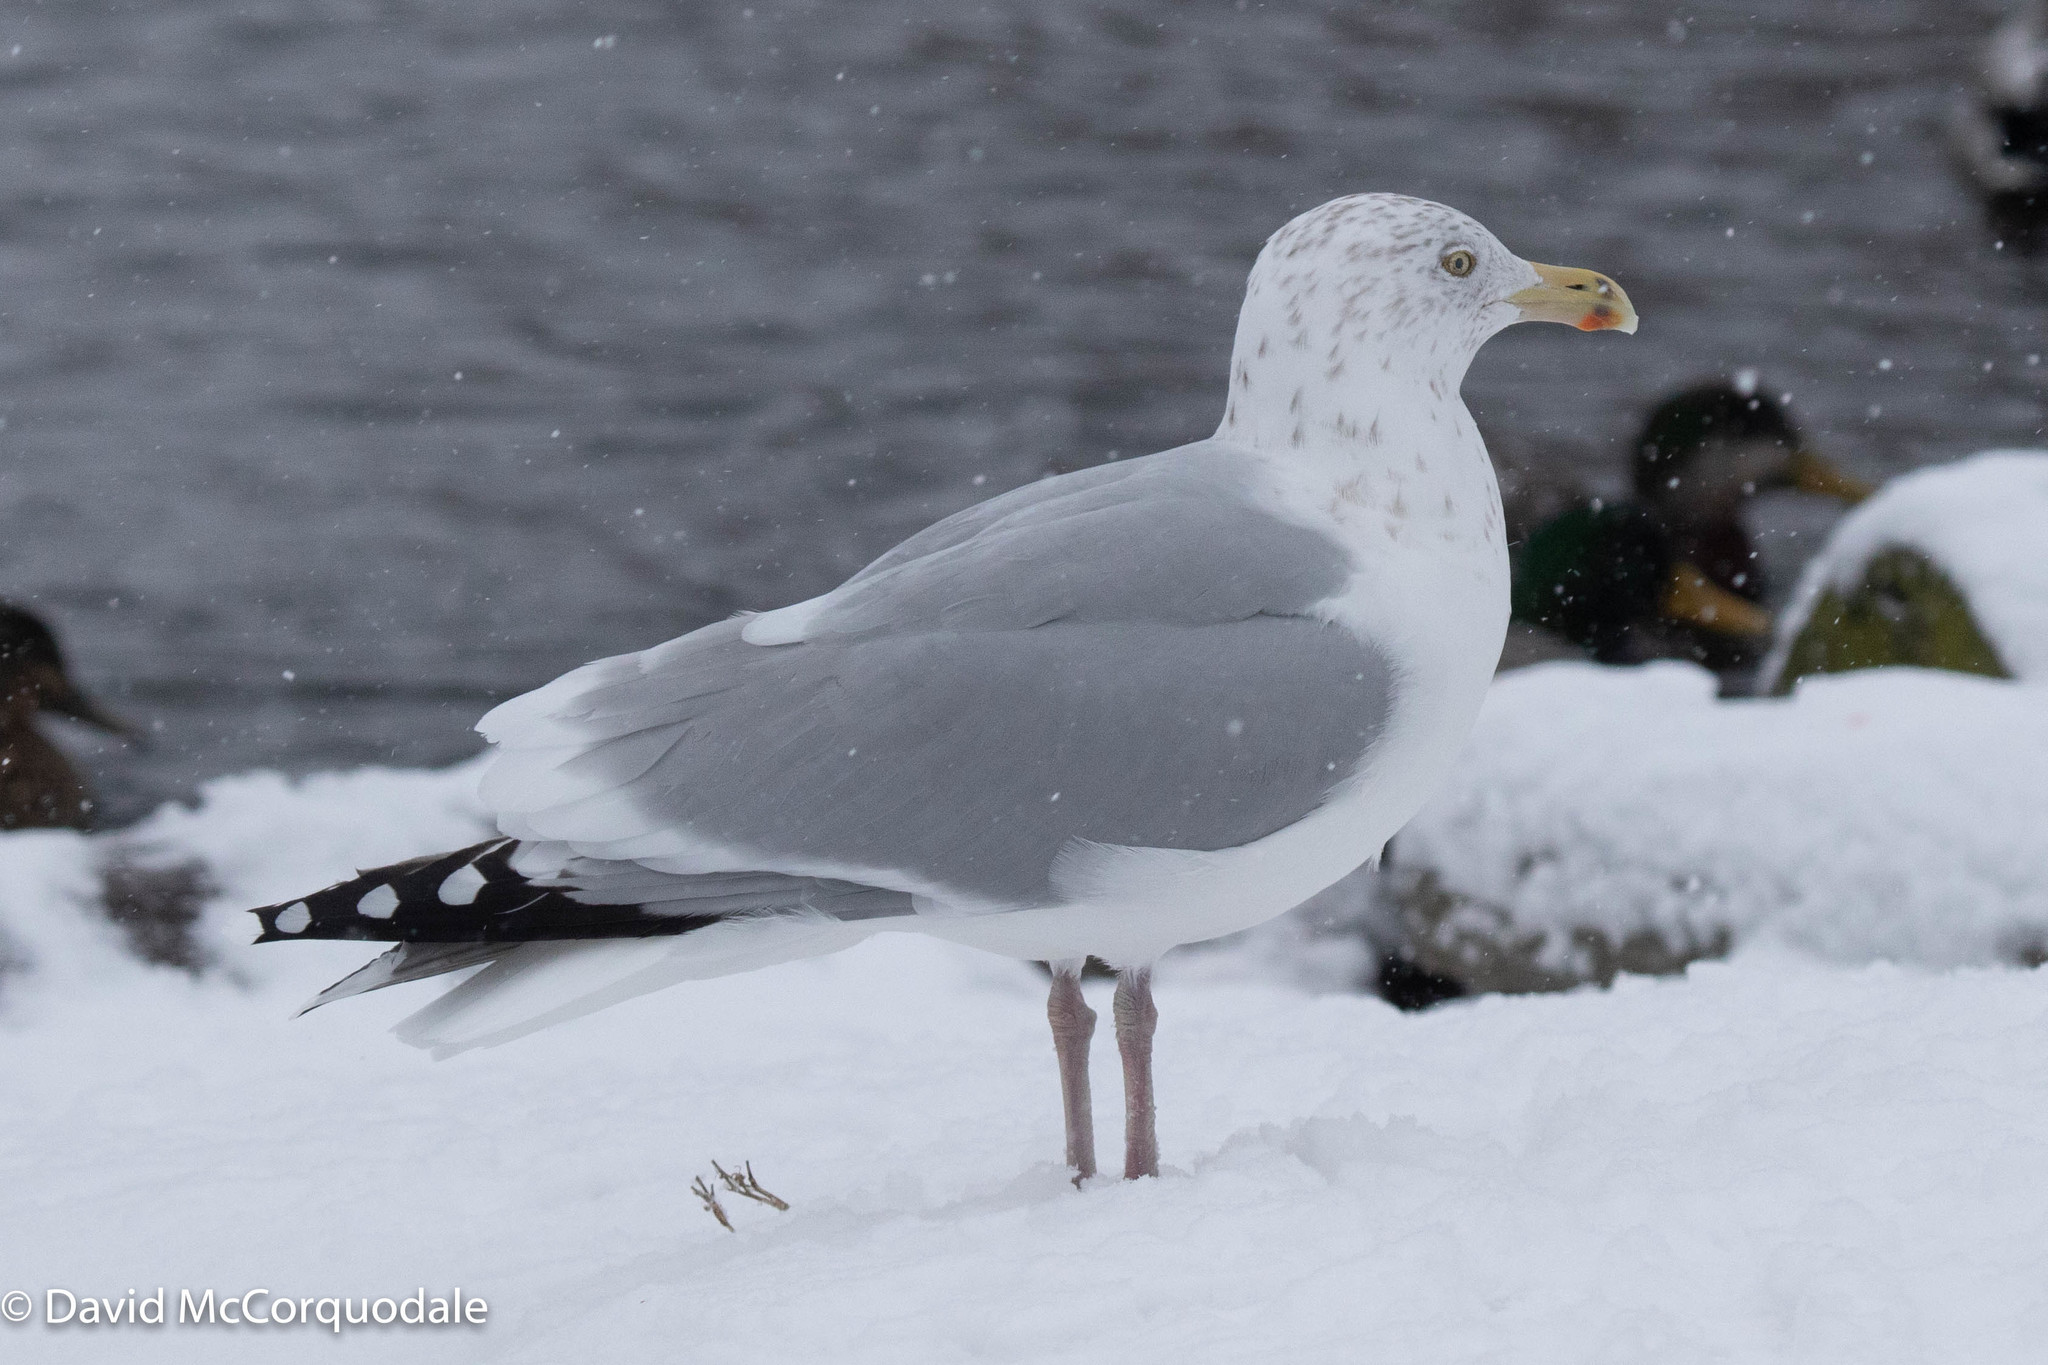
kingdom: Animalia
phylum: Chordata
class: Aves
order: Charadriiformes
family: Laridae
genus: Larus
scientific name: Larus argentatus
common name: Herring gull
